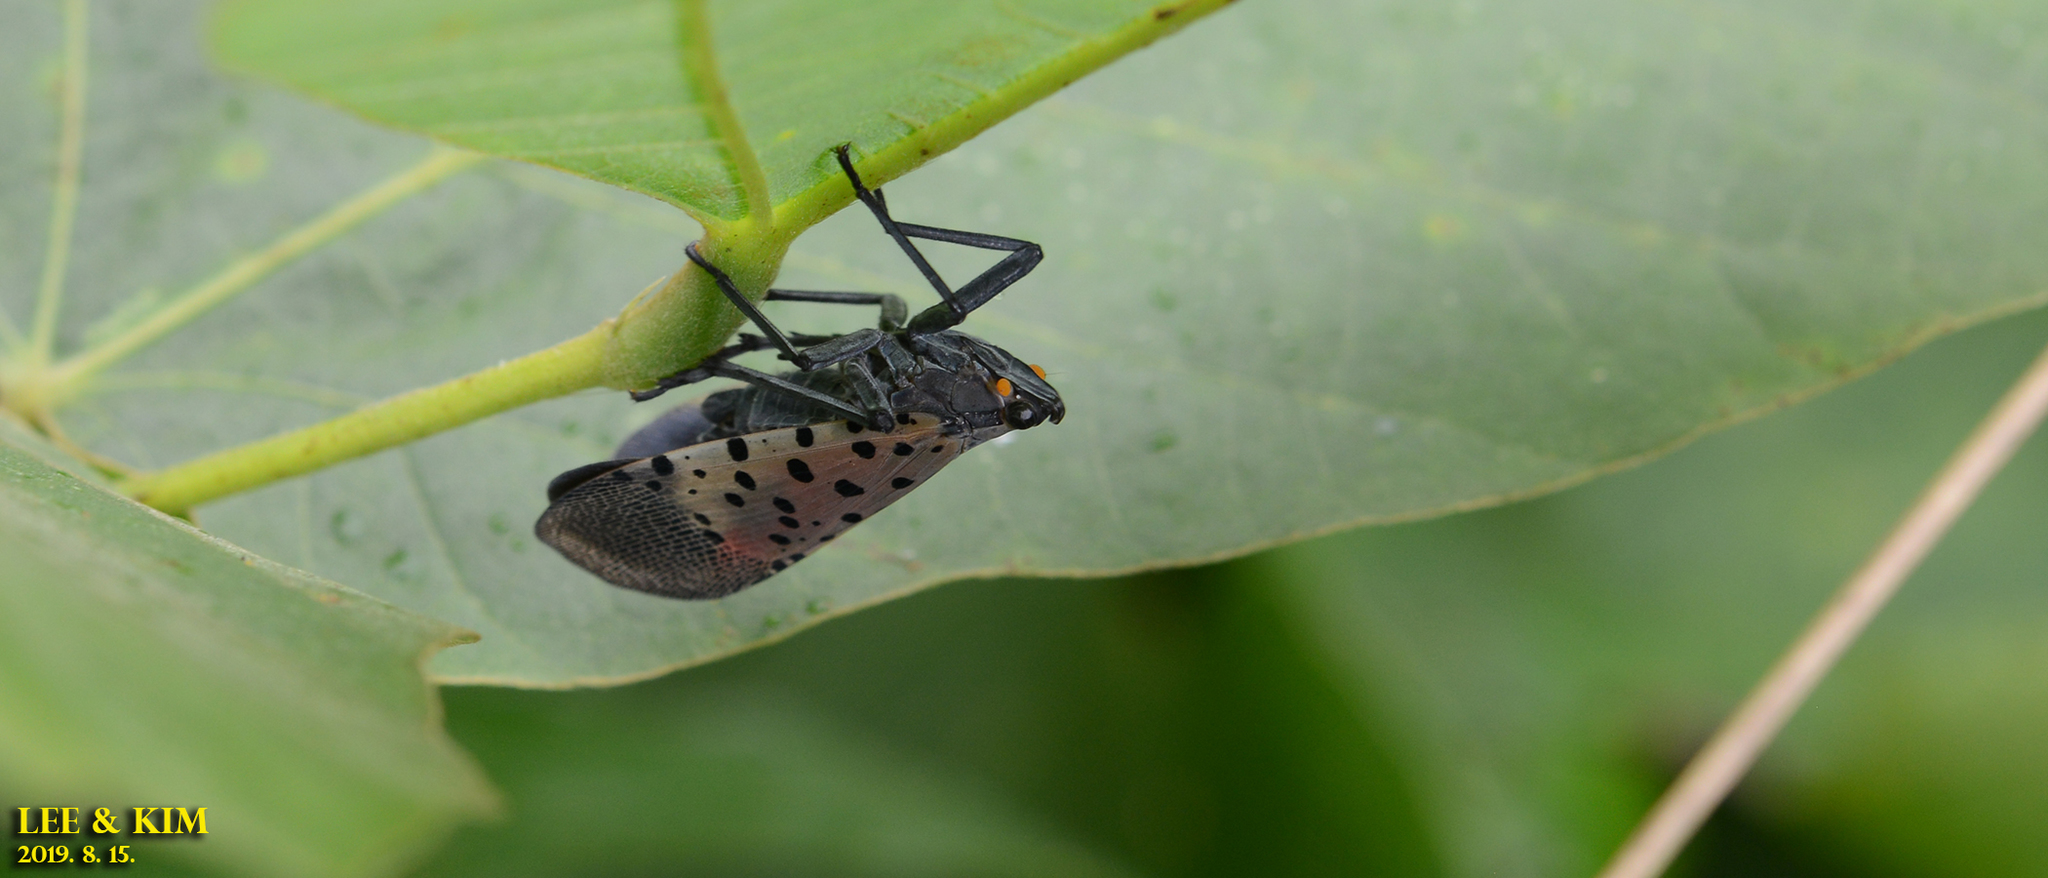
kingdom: Animalia
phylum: Arthropoda
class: Insecta
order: Hemiptera
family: Fulgoridae
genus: Lycorma
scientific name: Lycorma delicatula
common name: Spotted lanternfly
